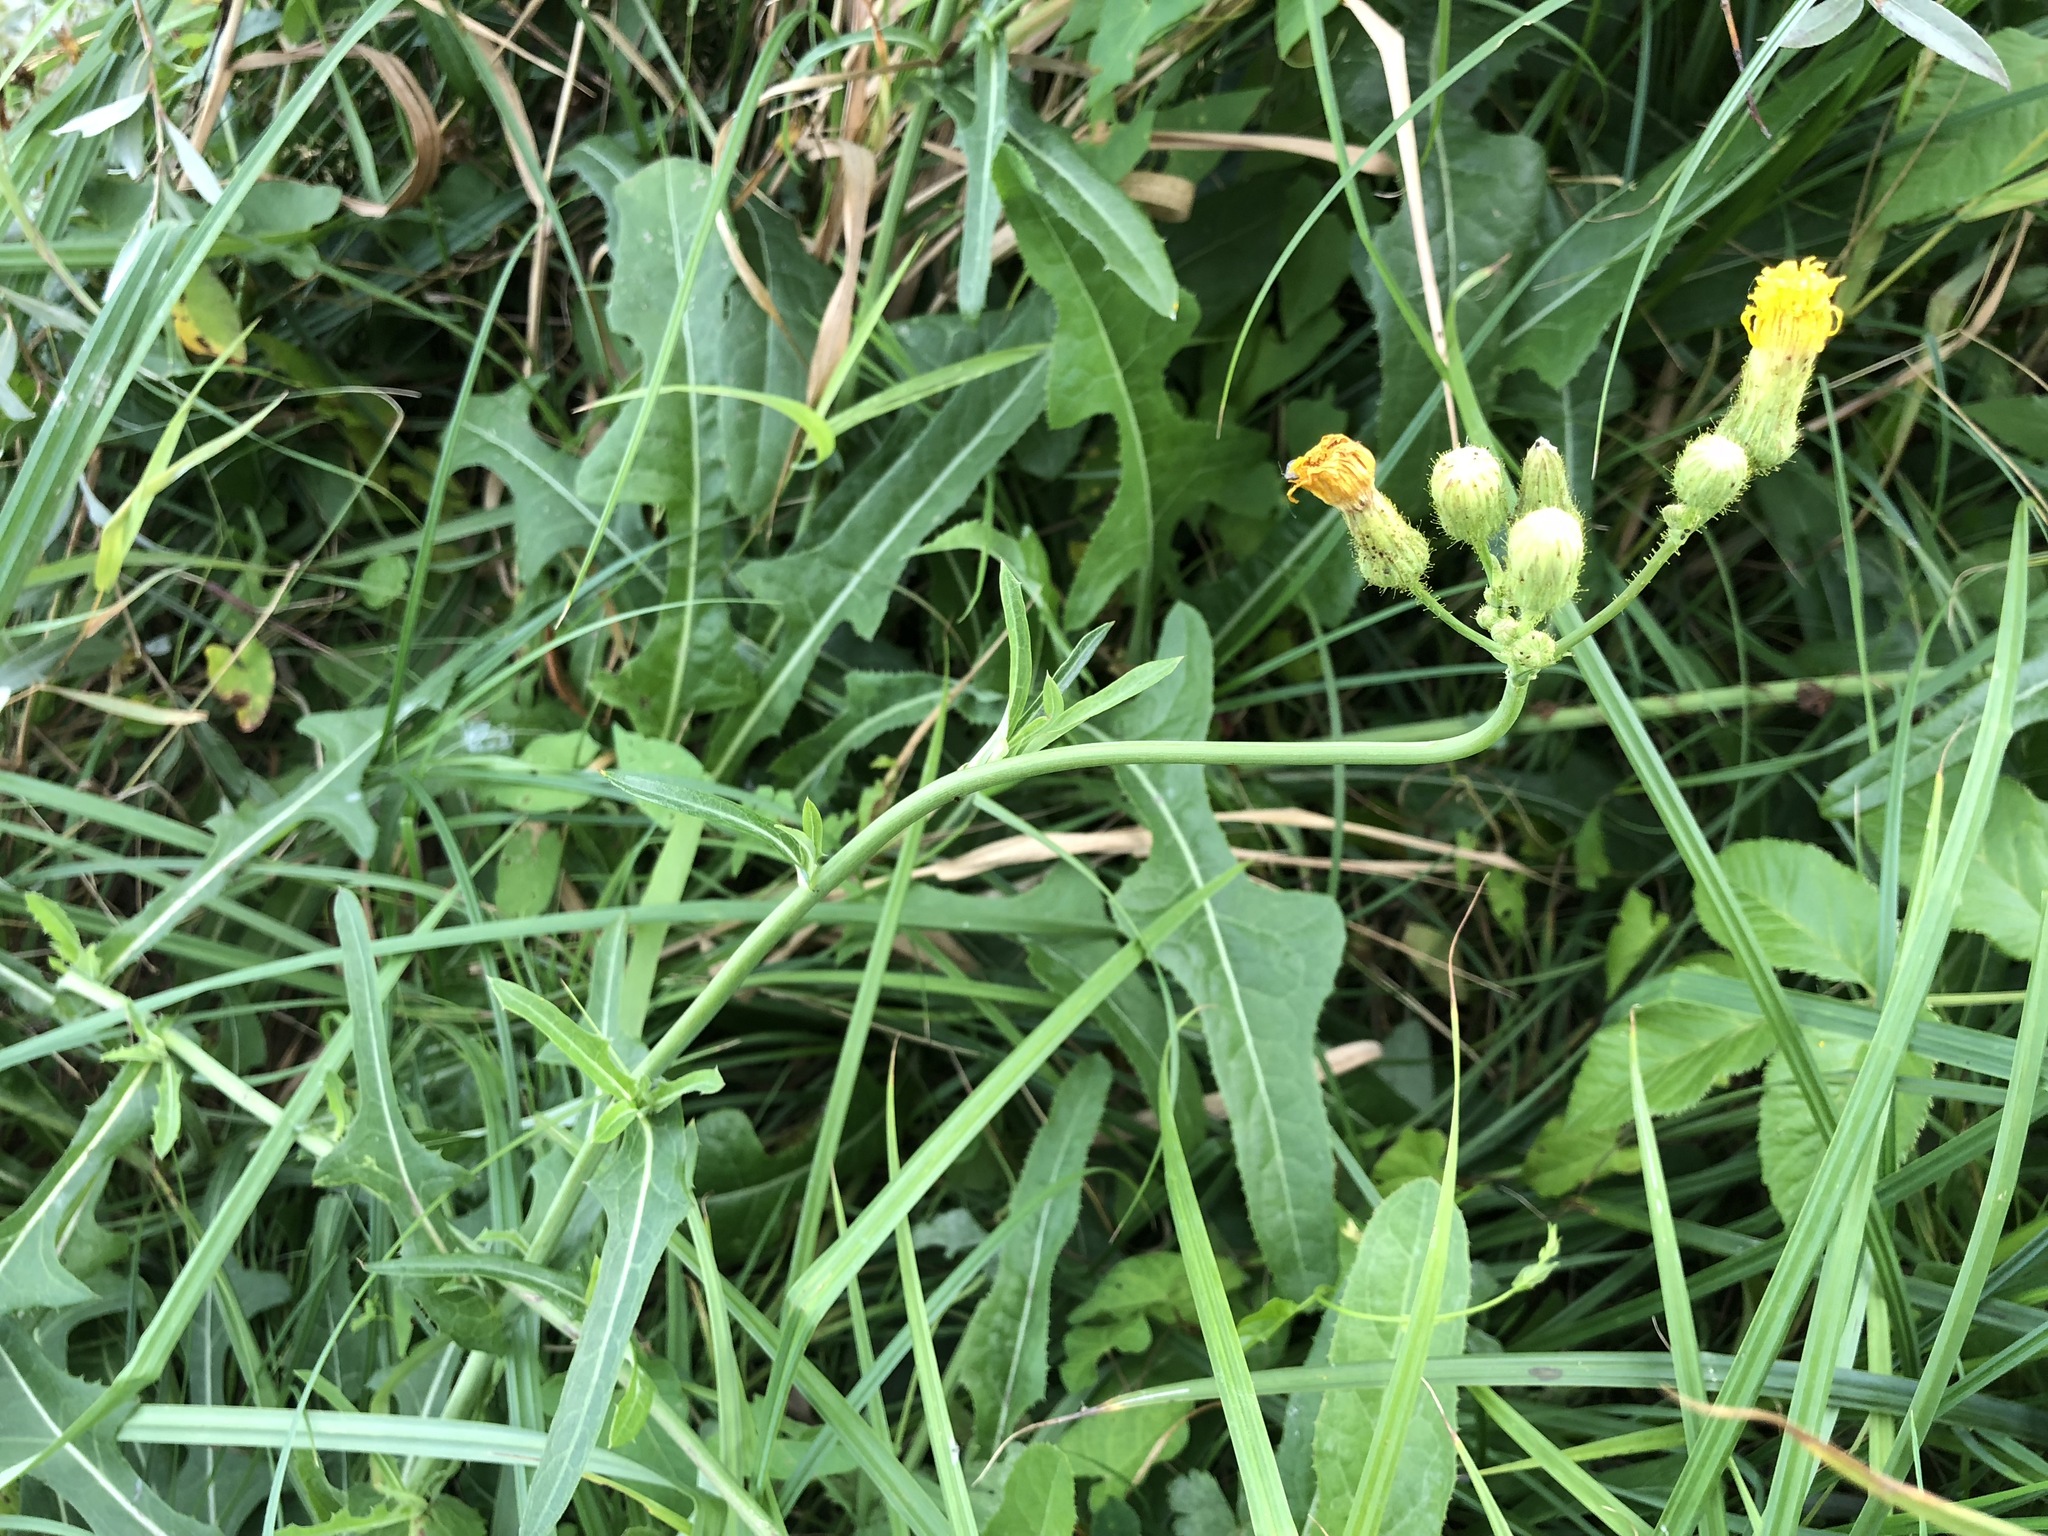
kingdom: Plantae
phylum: Tracheophyta
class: Magnoliopsida
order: Asterales
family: Asteraceae
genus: Sonchus
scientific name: Sonchus arvensis
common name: Perennial sow-thistle
